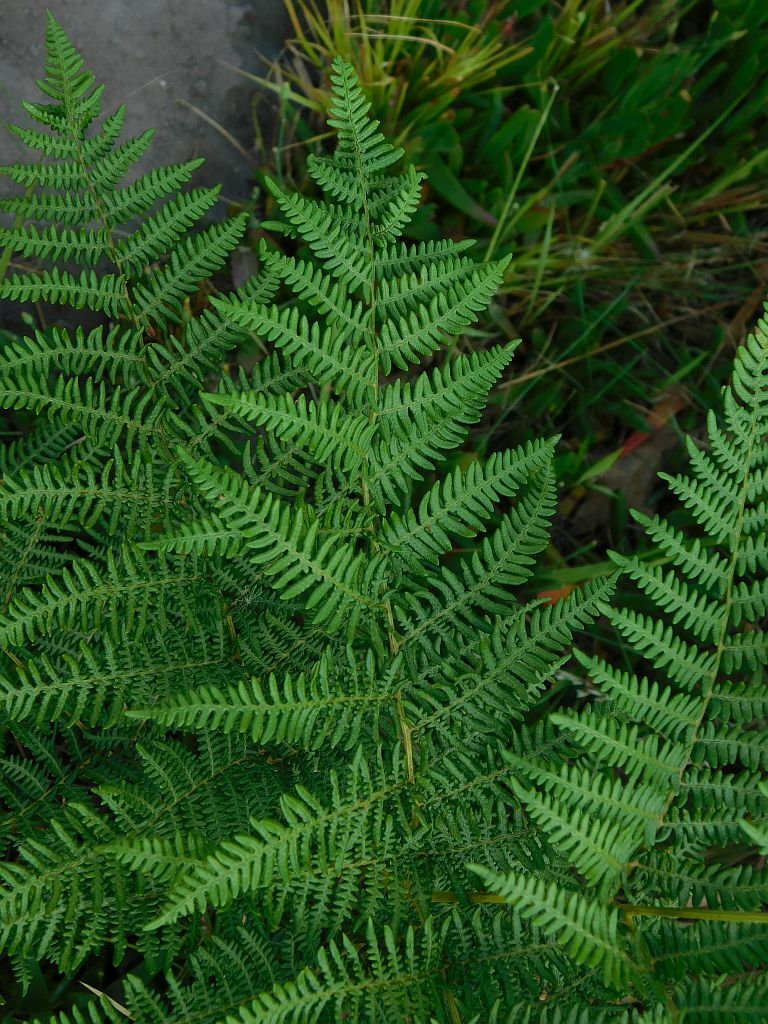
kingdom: Plantae
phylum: Tracheophyta
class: Polypodiopsida
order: Polypodiales
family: Dennstaedtiaceae
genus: Pteridium
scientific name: Pteridium aquilinum
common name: Bracken
